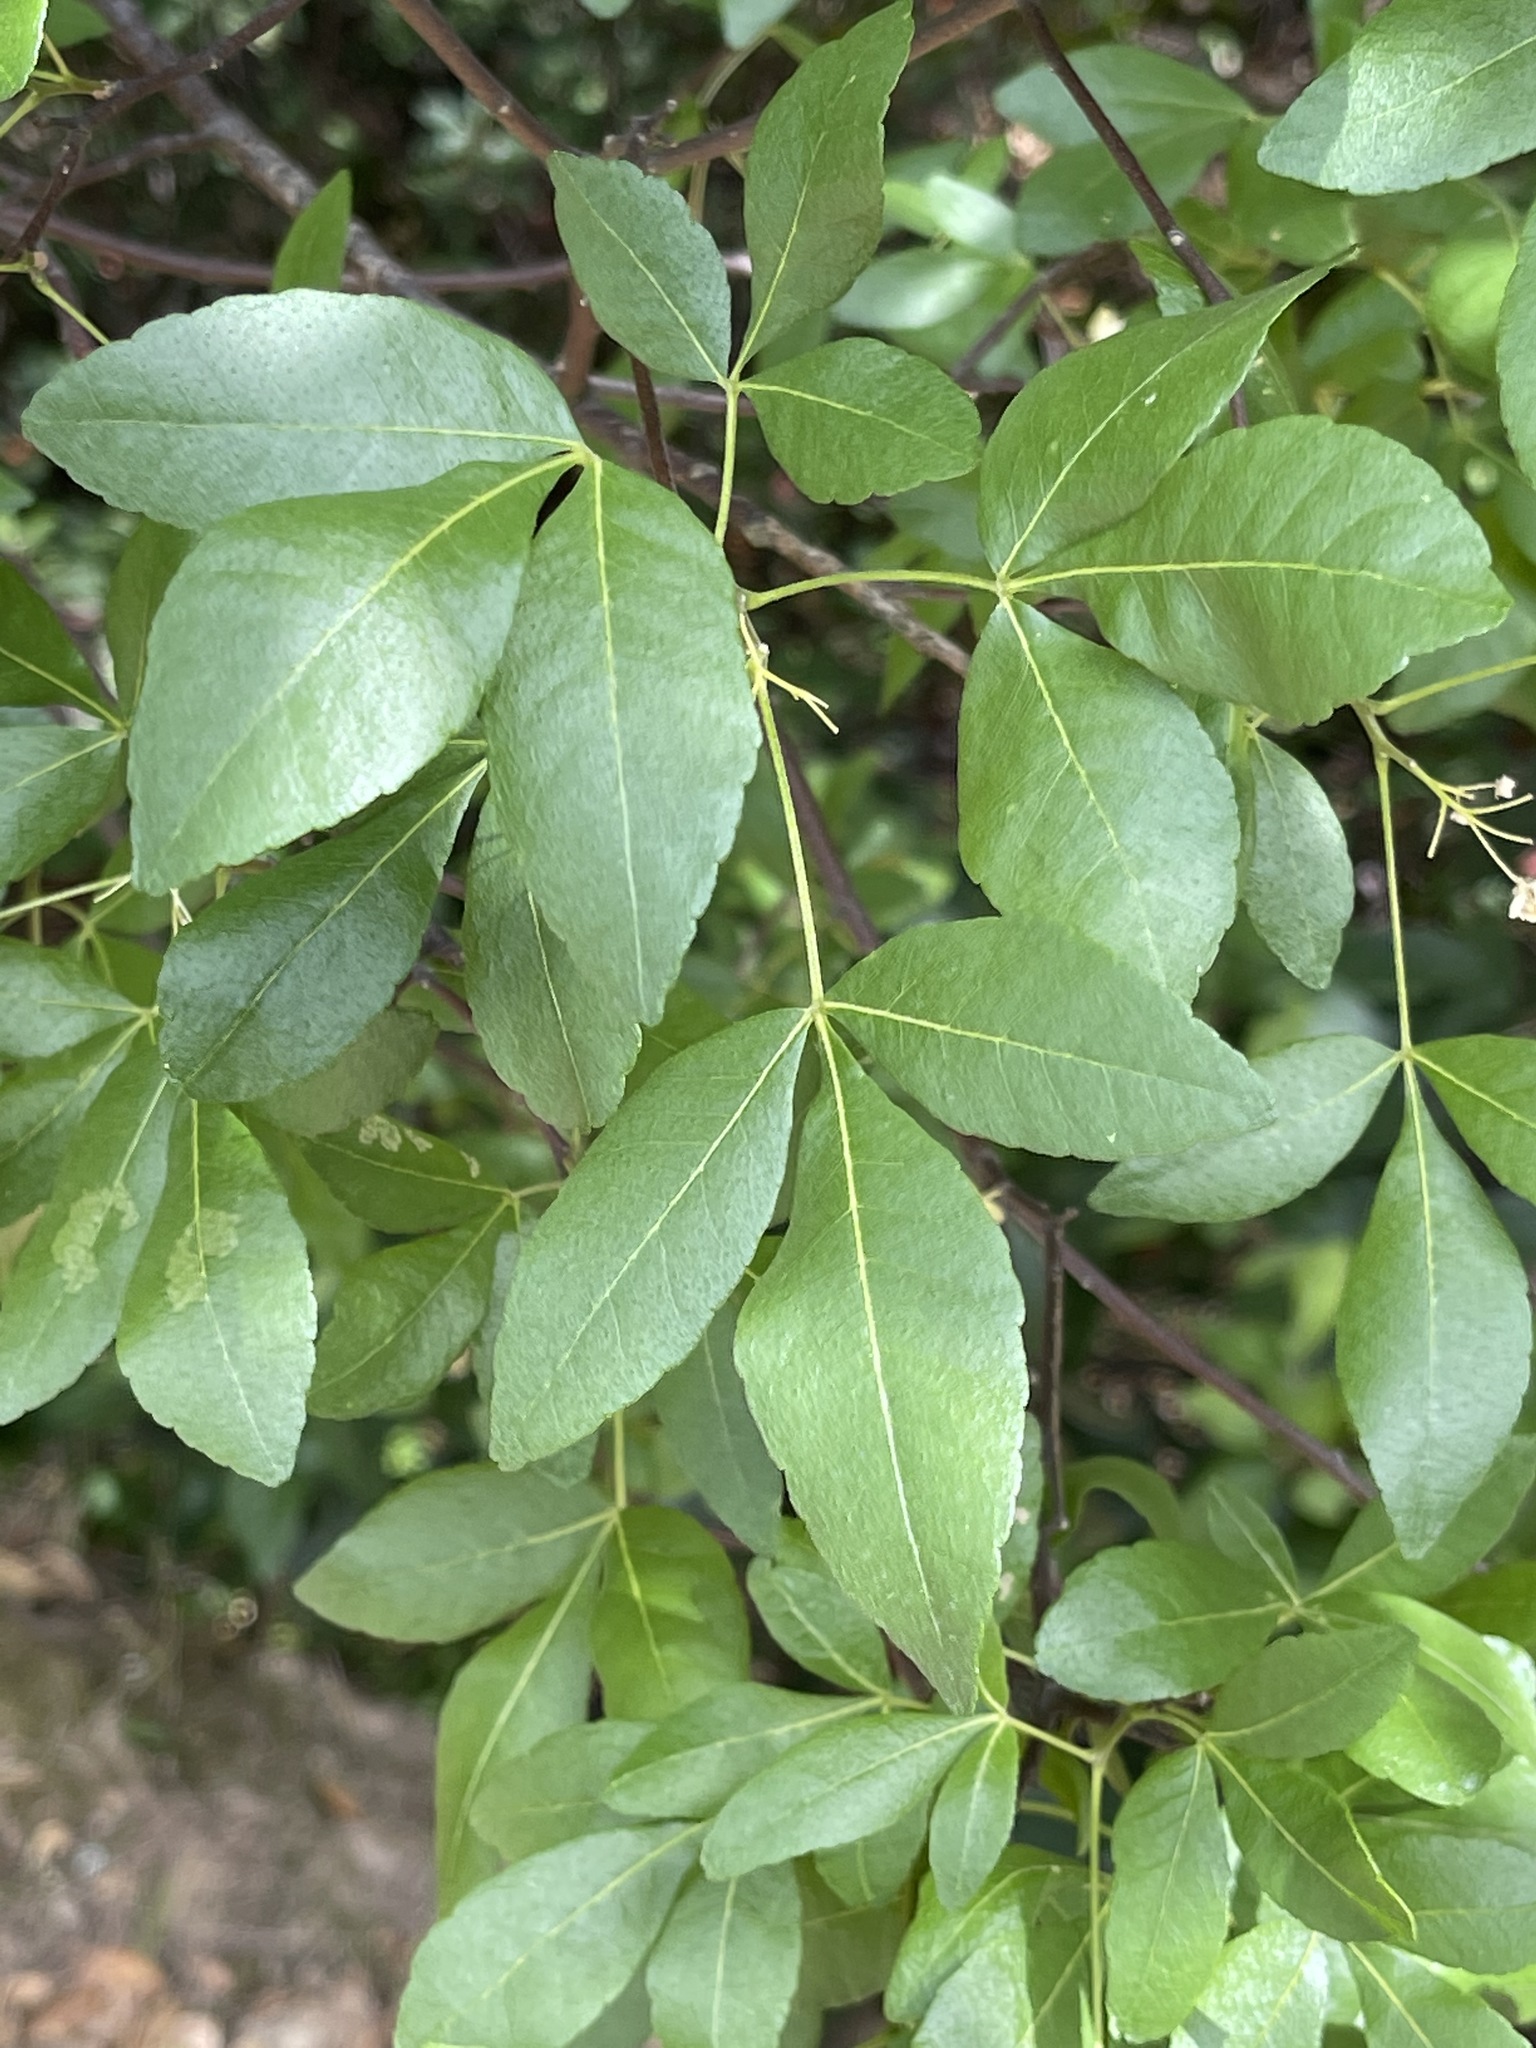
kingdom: Plantae
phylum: Tracheophyta
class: Magnoliopsida
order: Sapindales
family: Rutaceae
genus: Ptelea
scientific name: Ptelea crenulata
